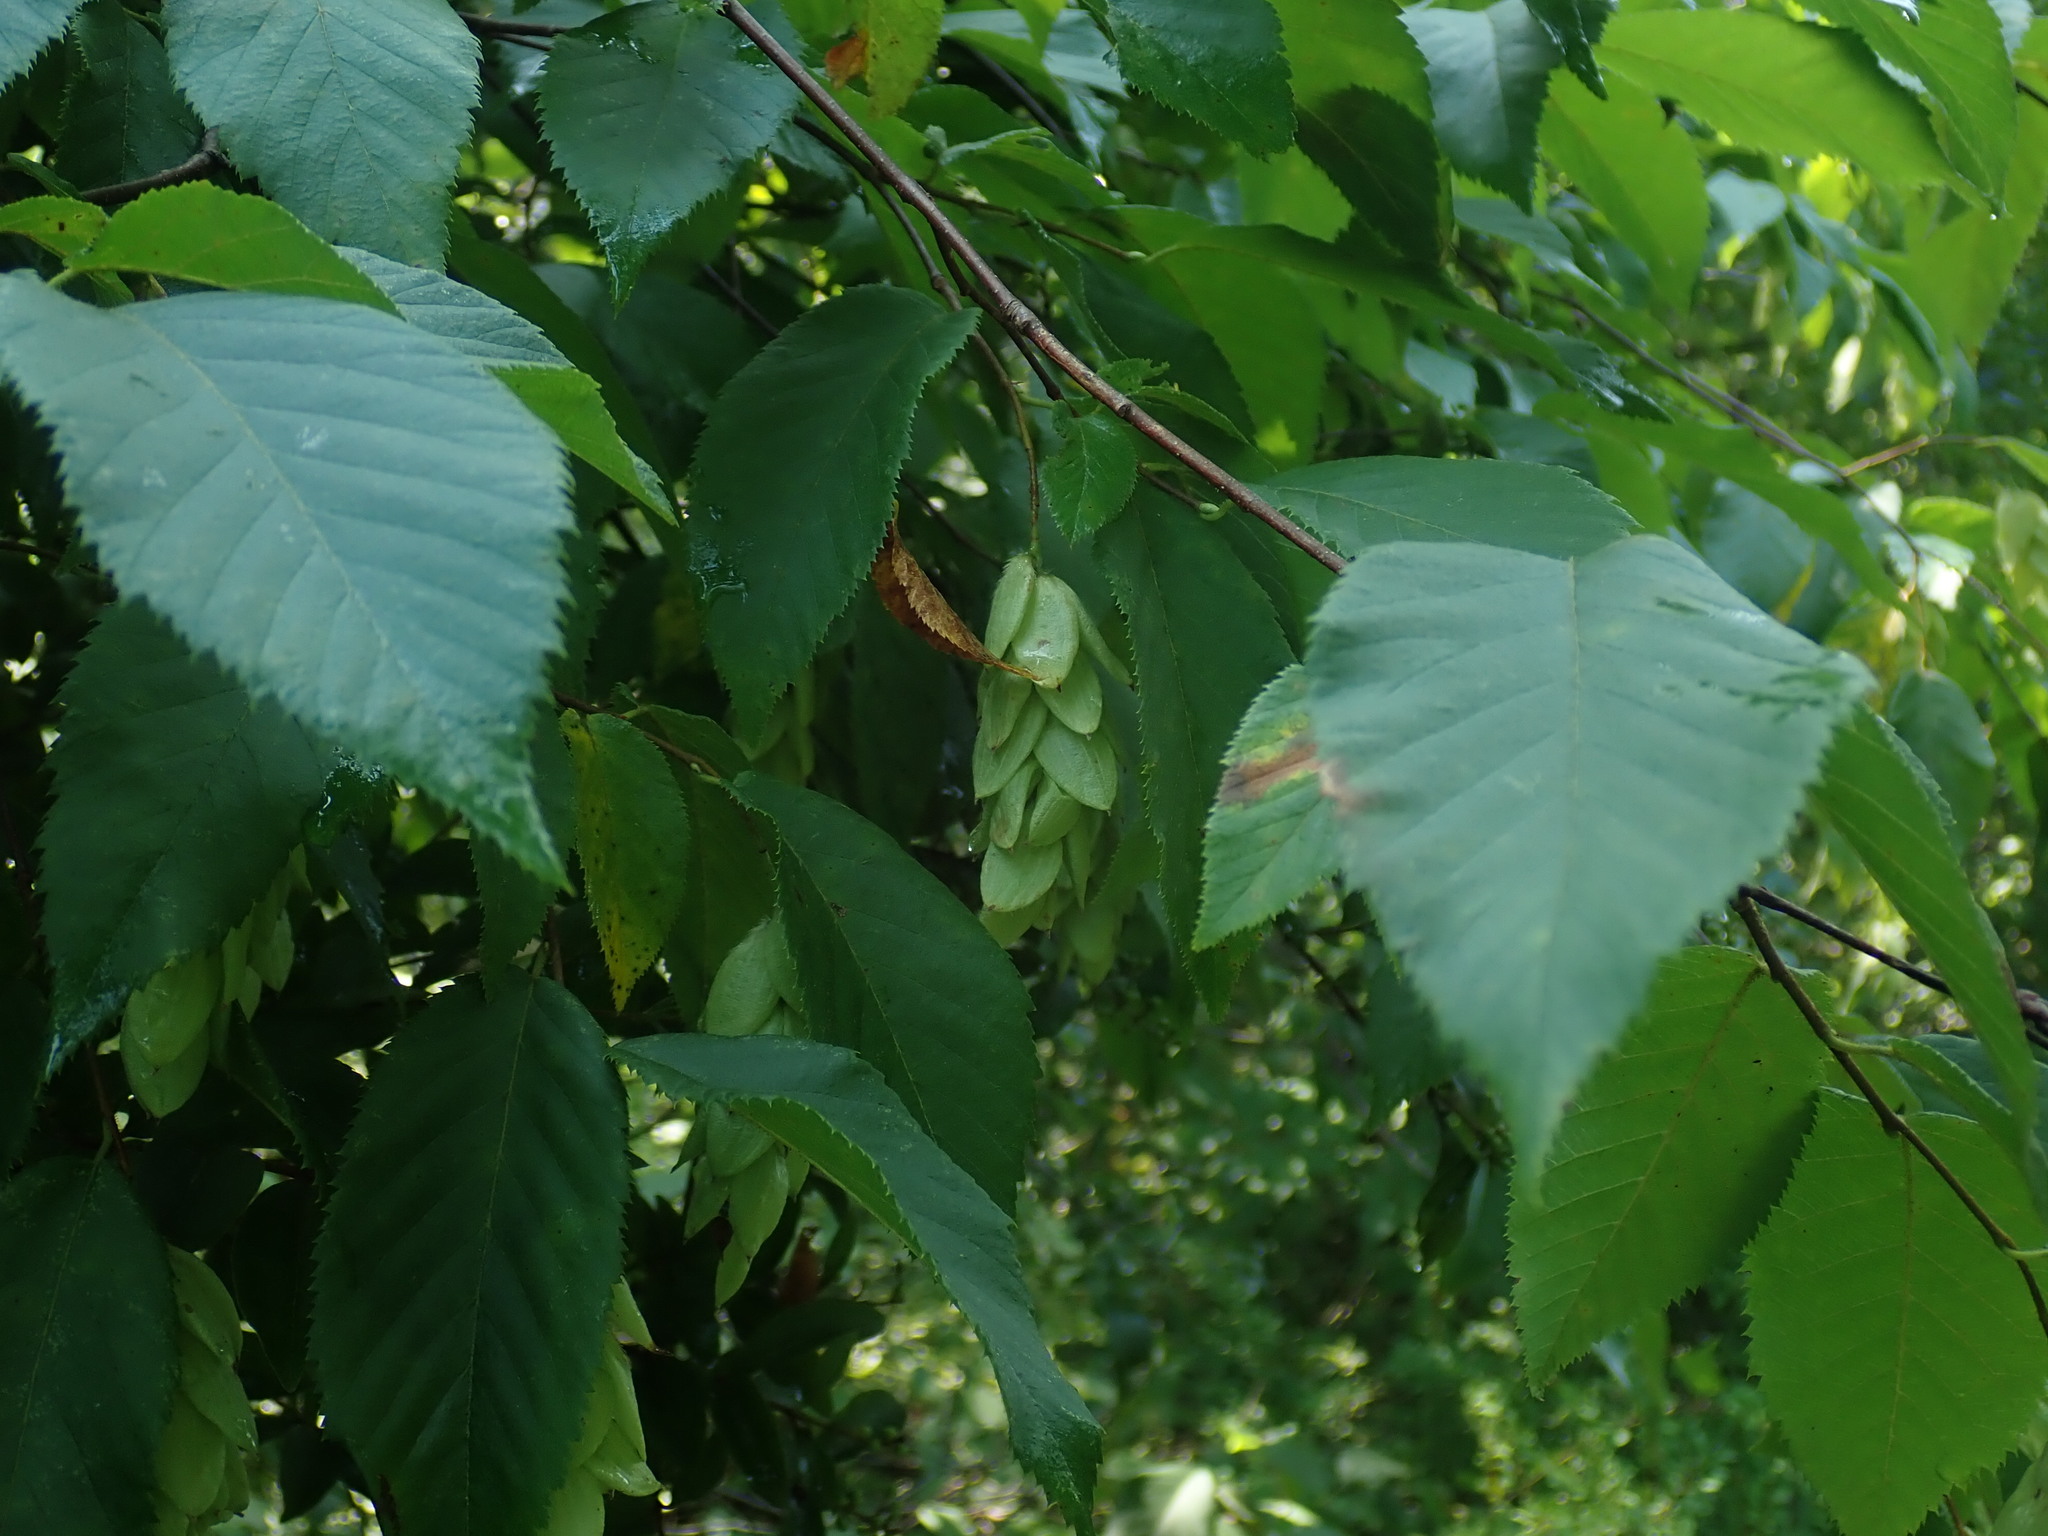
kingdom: Plantae
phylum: Tracheophyta
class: Magnoliopsida
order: Fagales
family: Betulaceae
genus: Ostrya
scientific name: Ostrya virginiana
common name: Ironwood
